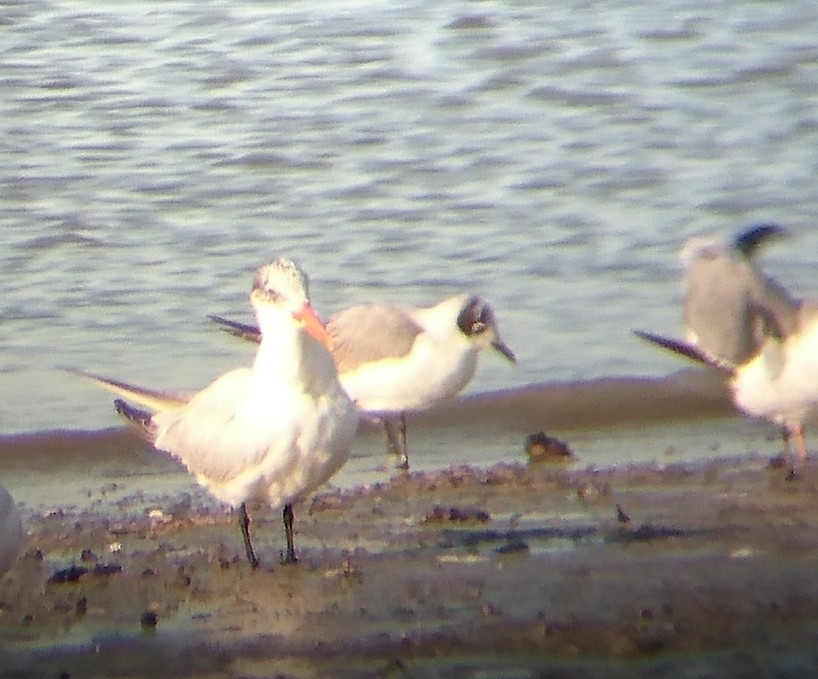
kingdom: Animalia
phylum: Chordata
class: Aves
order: Charadriiformes
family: Laridae
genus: Leucophaeus
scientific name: Leucophaeus pipixcan
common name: Franklin's gull
